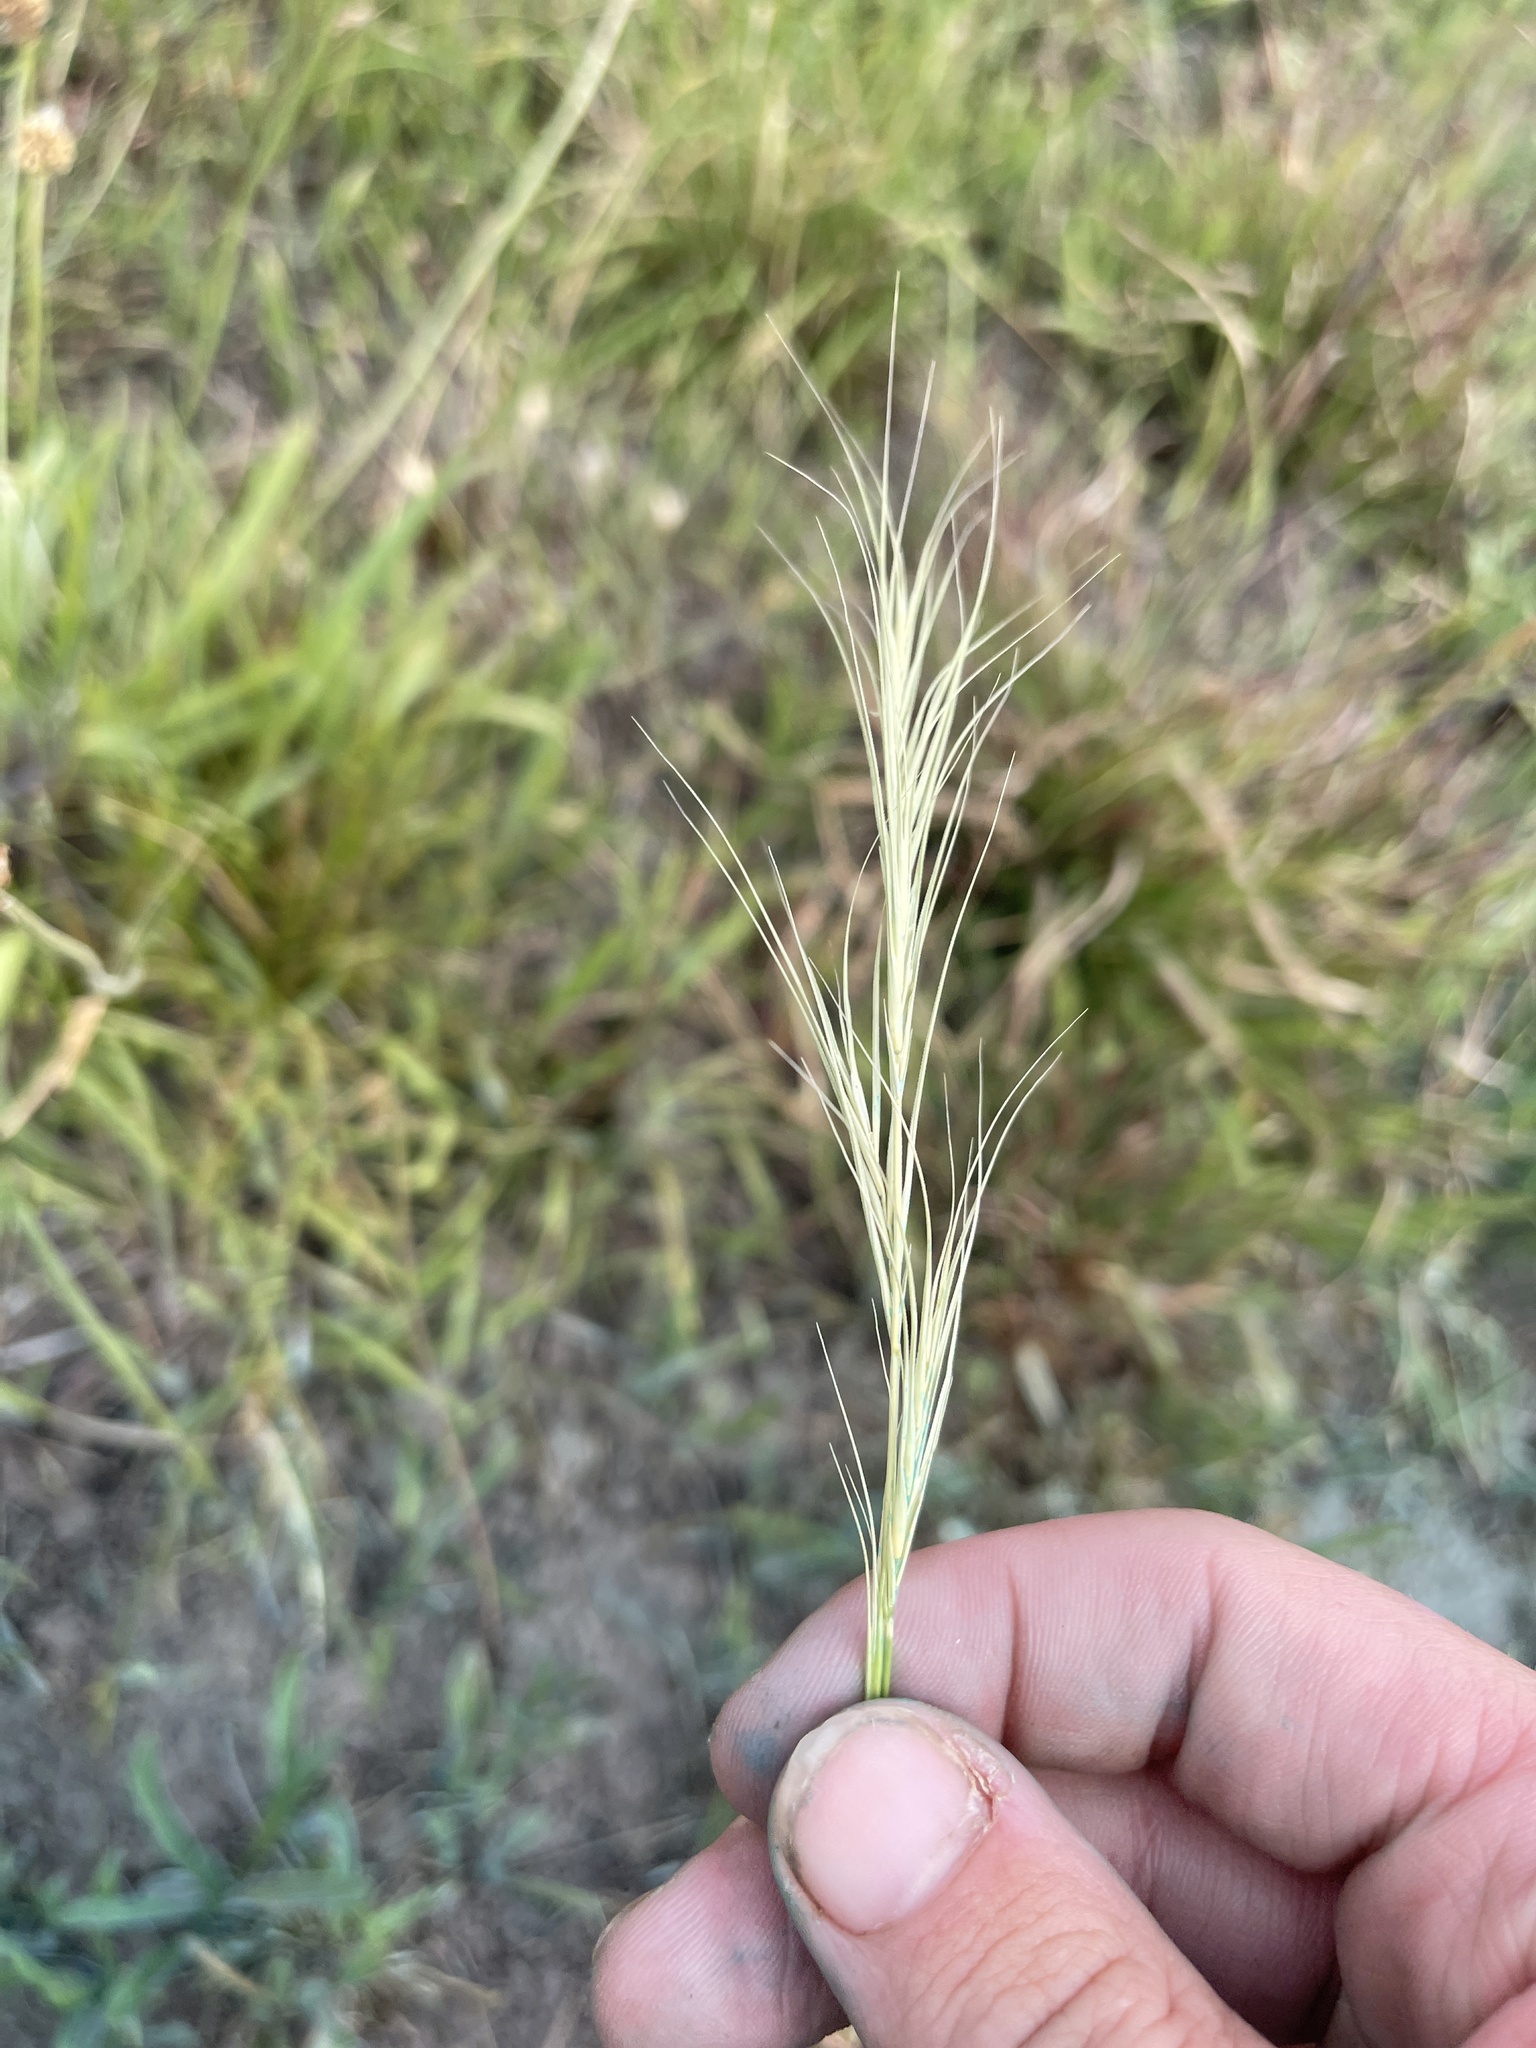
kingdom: Plantae
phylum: Tracheophyta
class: Liliopsida
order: Poales
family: Poaceae
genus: Anthosachne
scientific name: Anthosachne scabra
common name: Common wheatgrass
